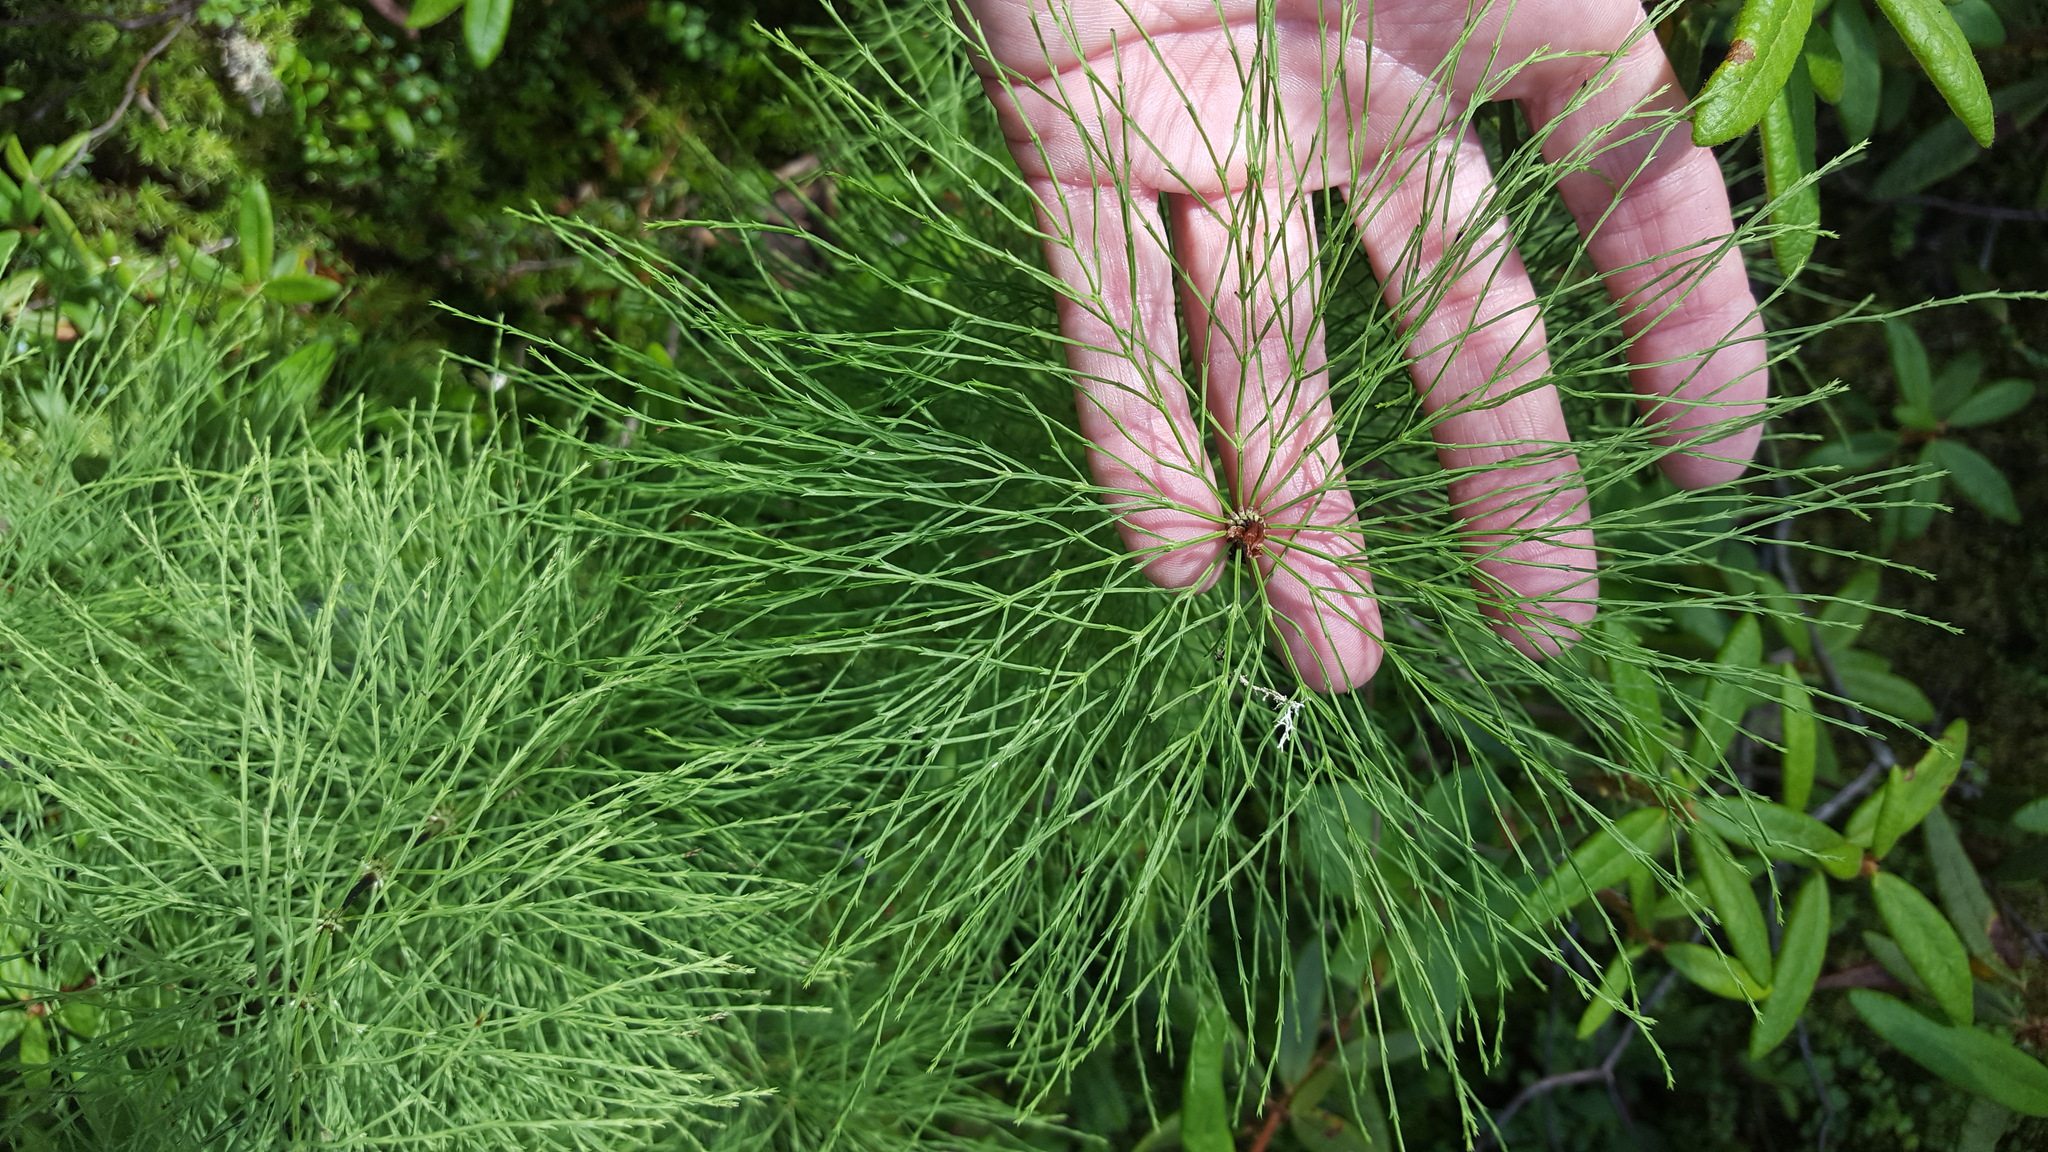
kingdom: Plantae
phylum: Tracheophyta
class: Polypodiopsida
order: Equisetales
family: Equisetaceae
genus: Equisetum
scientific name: Equisetum sylvaticum
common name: Wood horsetail
